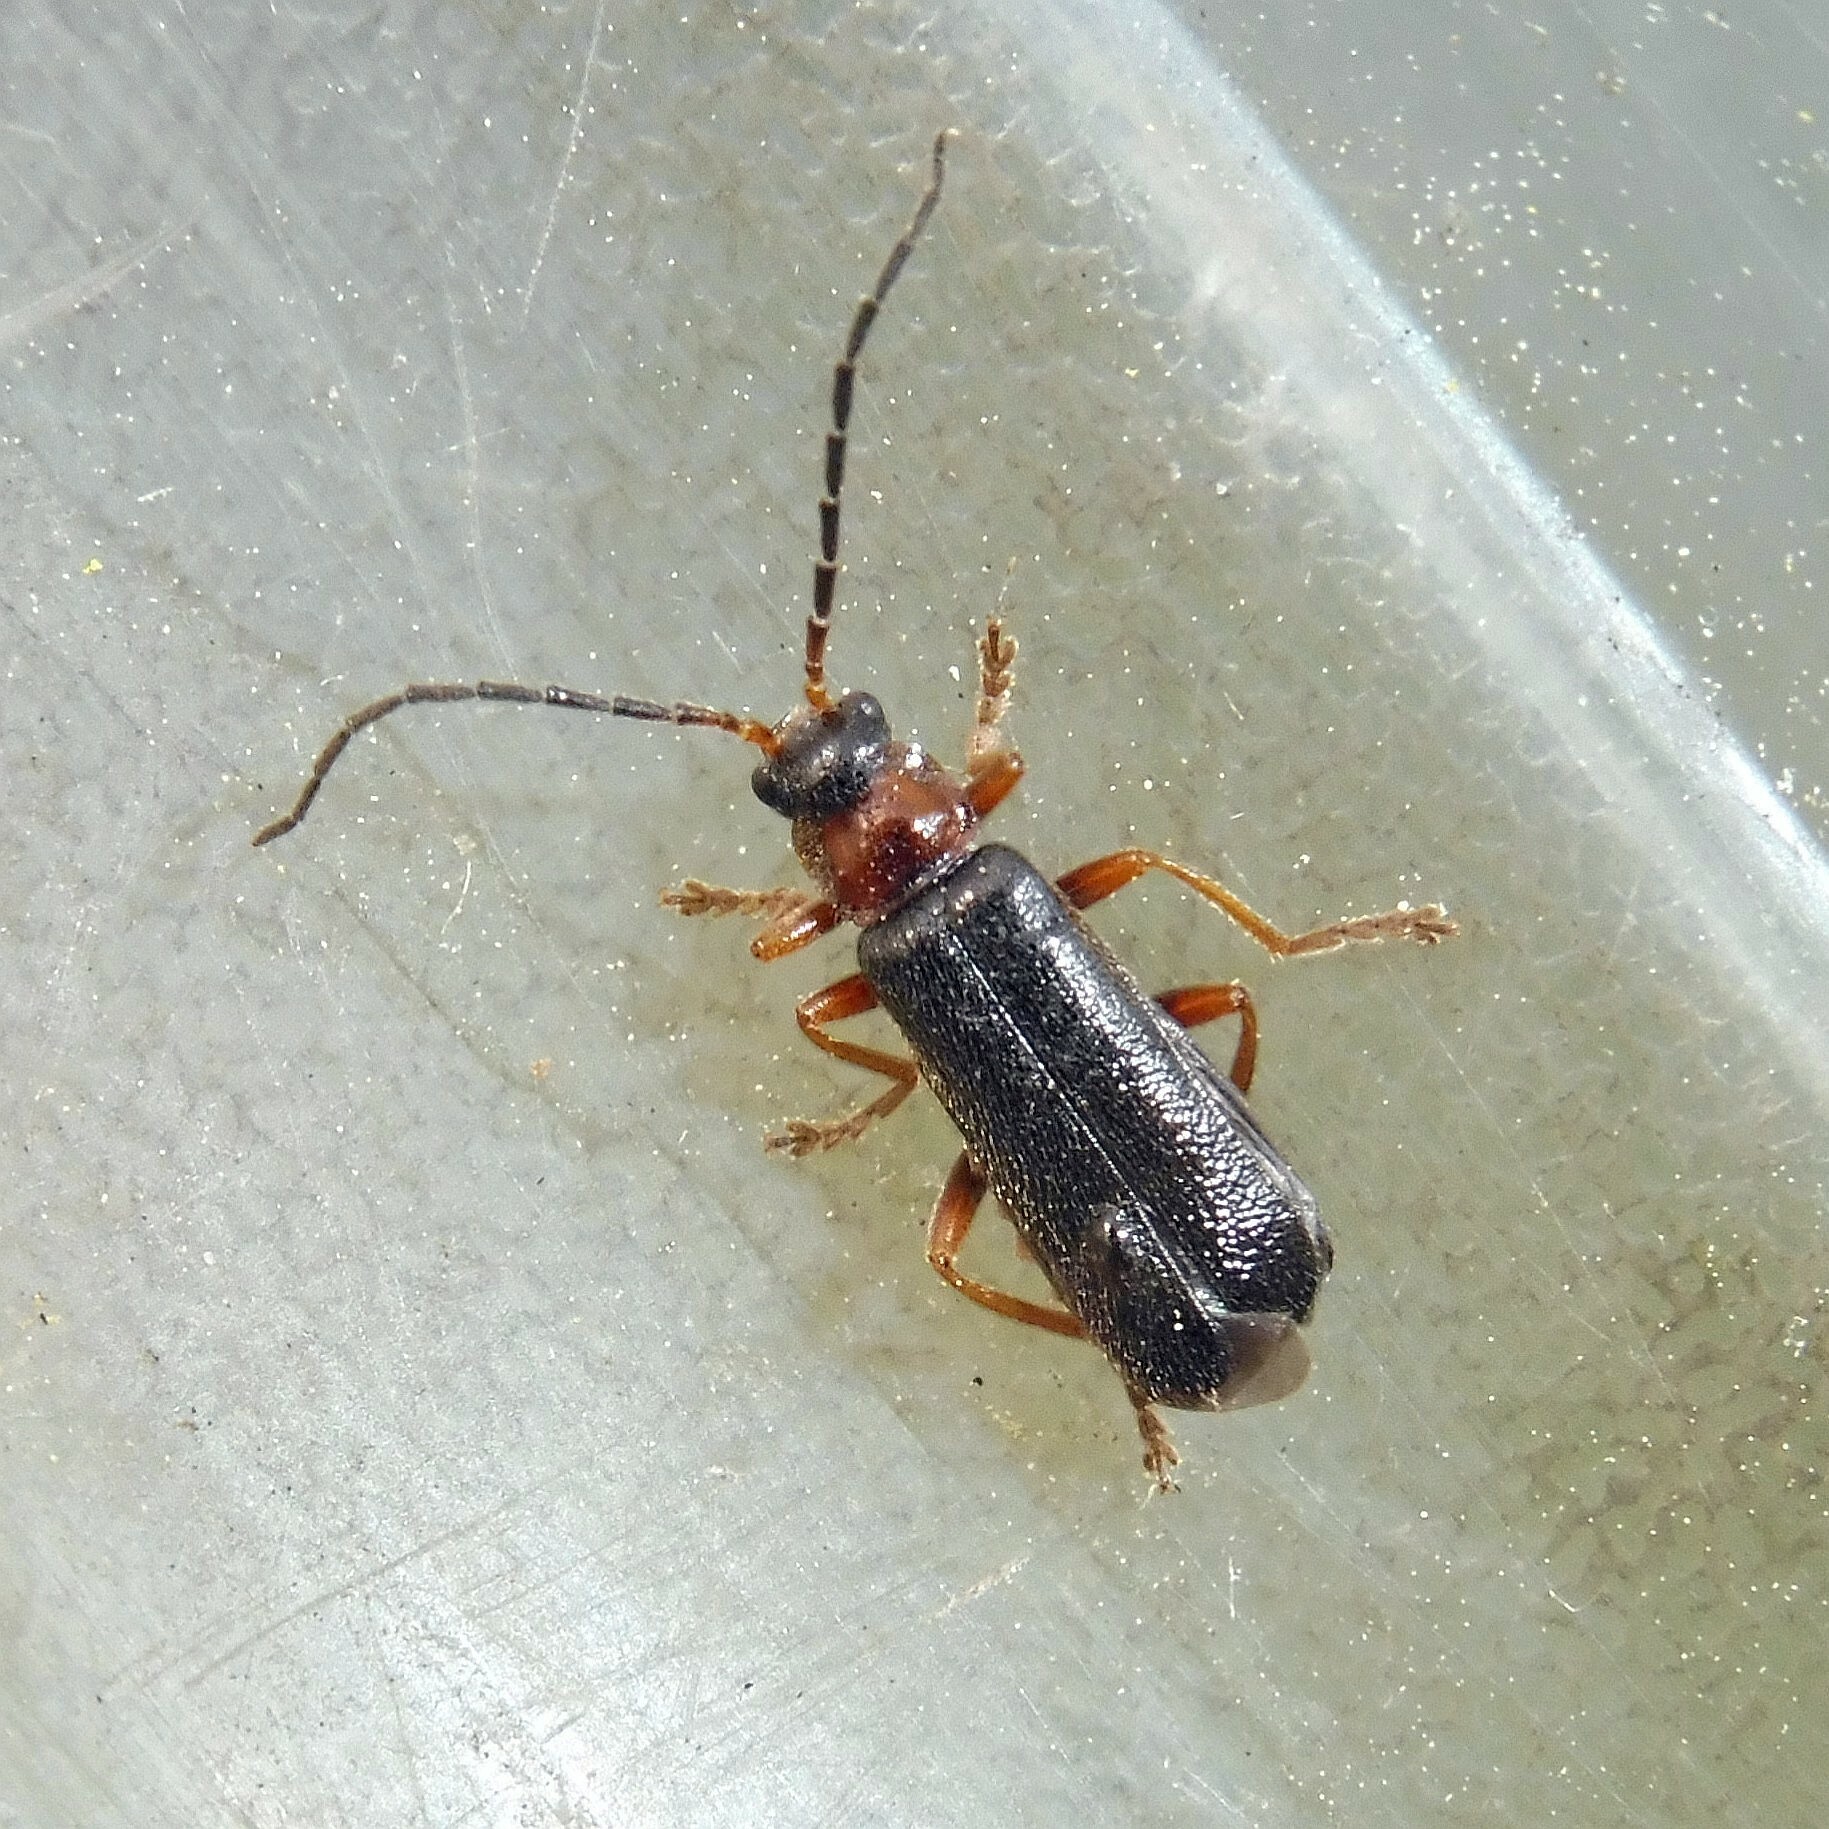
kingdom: Animalia
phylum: Arthropoda
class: Insecta
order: Coleoptera
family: Cantharidae
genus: Cantharis
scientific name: Cantharis flavilabris
